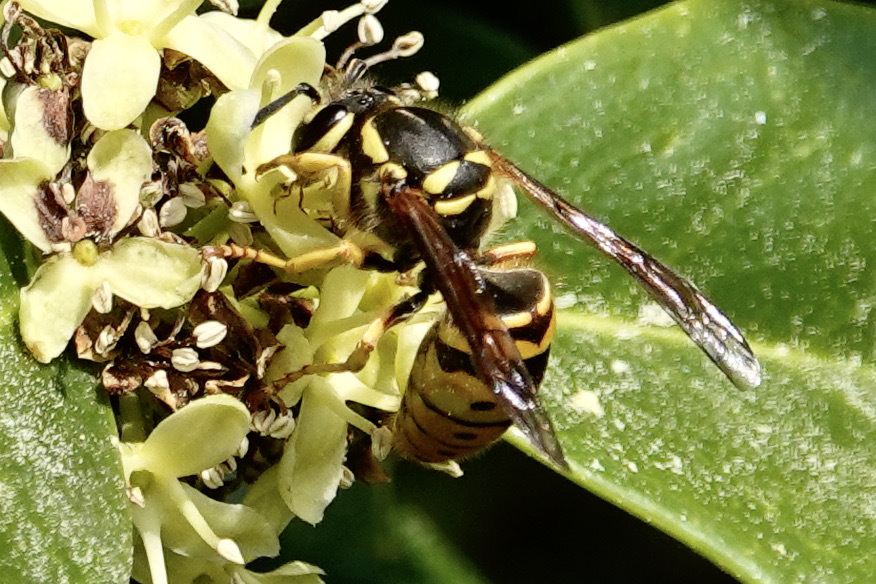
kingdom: Animalia
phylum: Arthropoda
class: Insecta
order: Hymenoptera
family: Vespidae
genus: Vespula
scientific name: Vespula maculifrons
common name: Eastern yellowjacket
